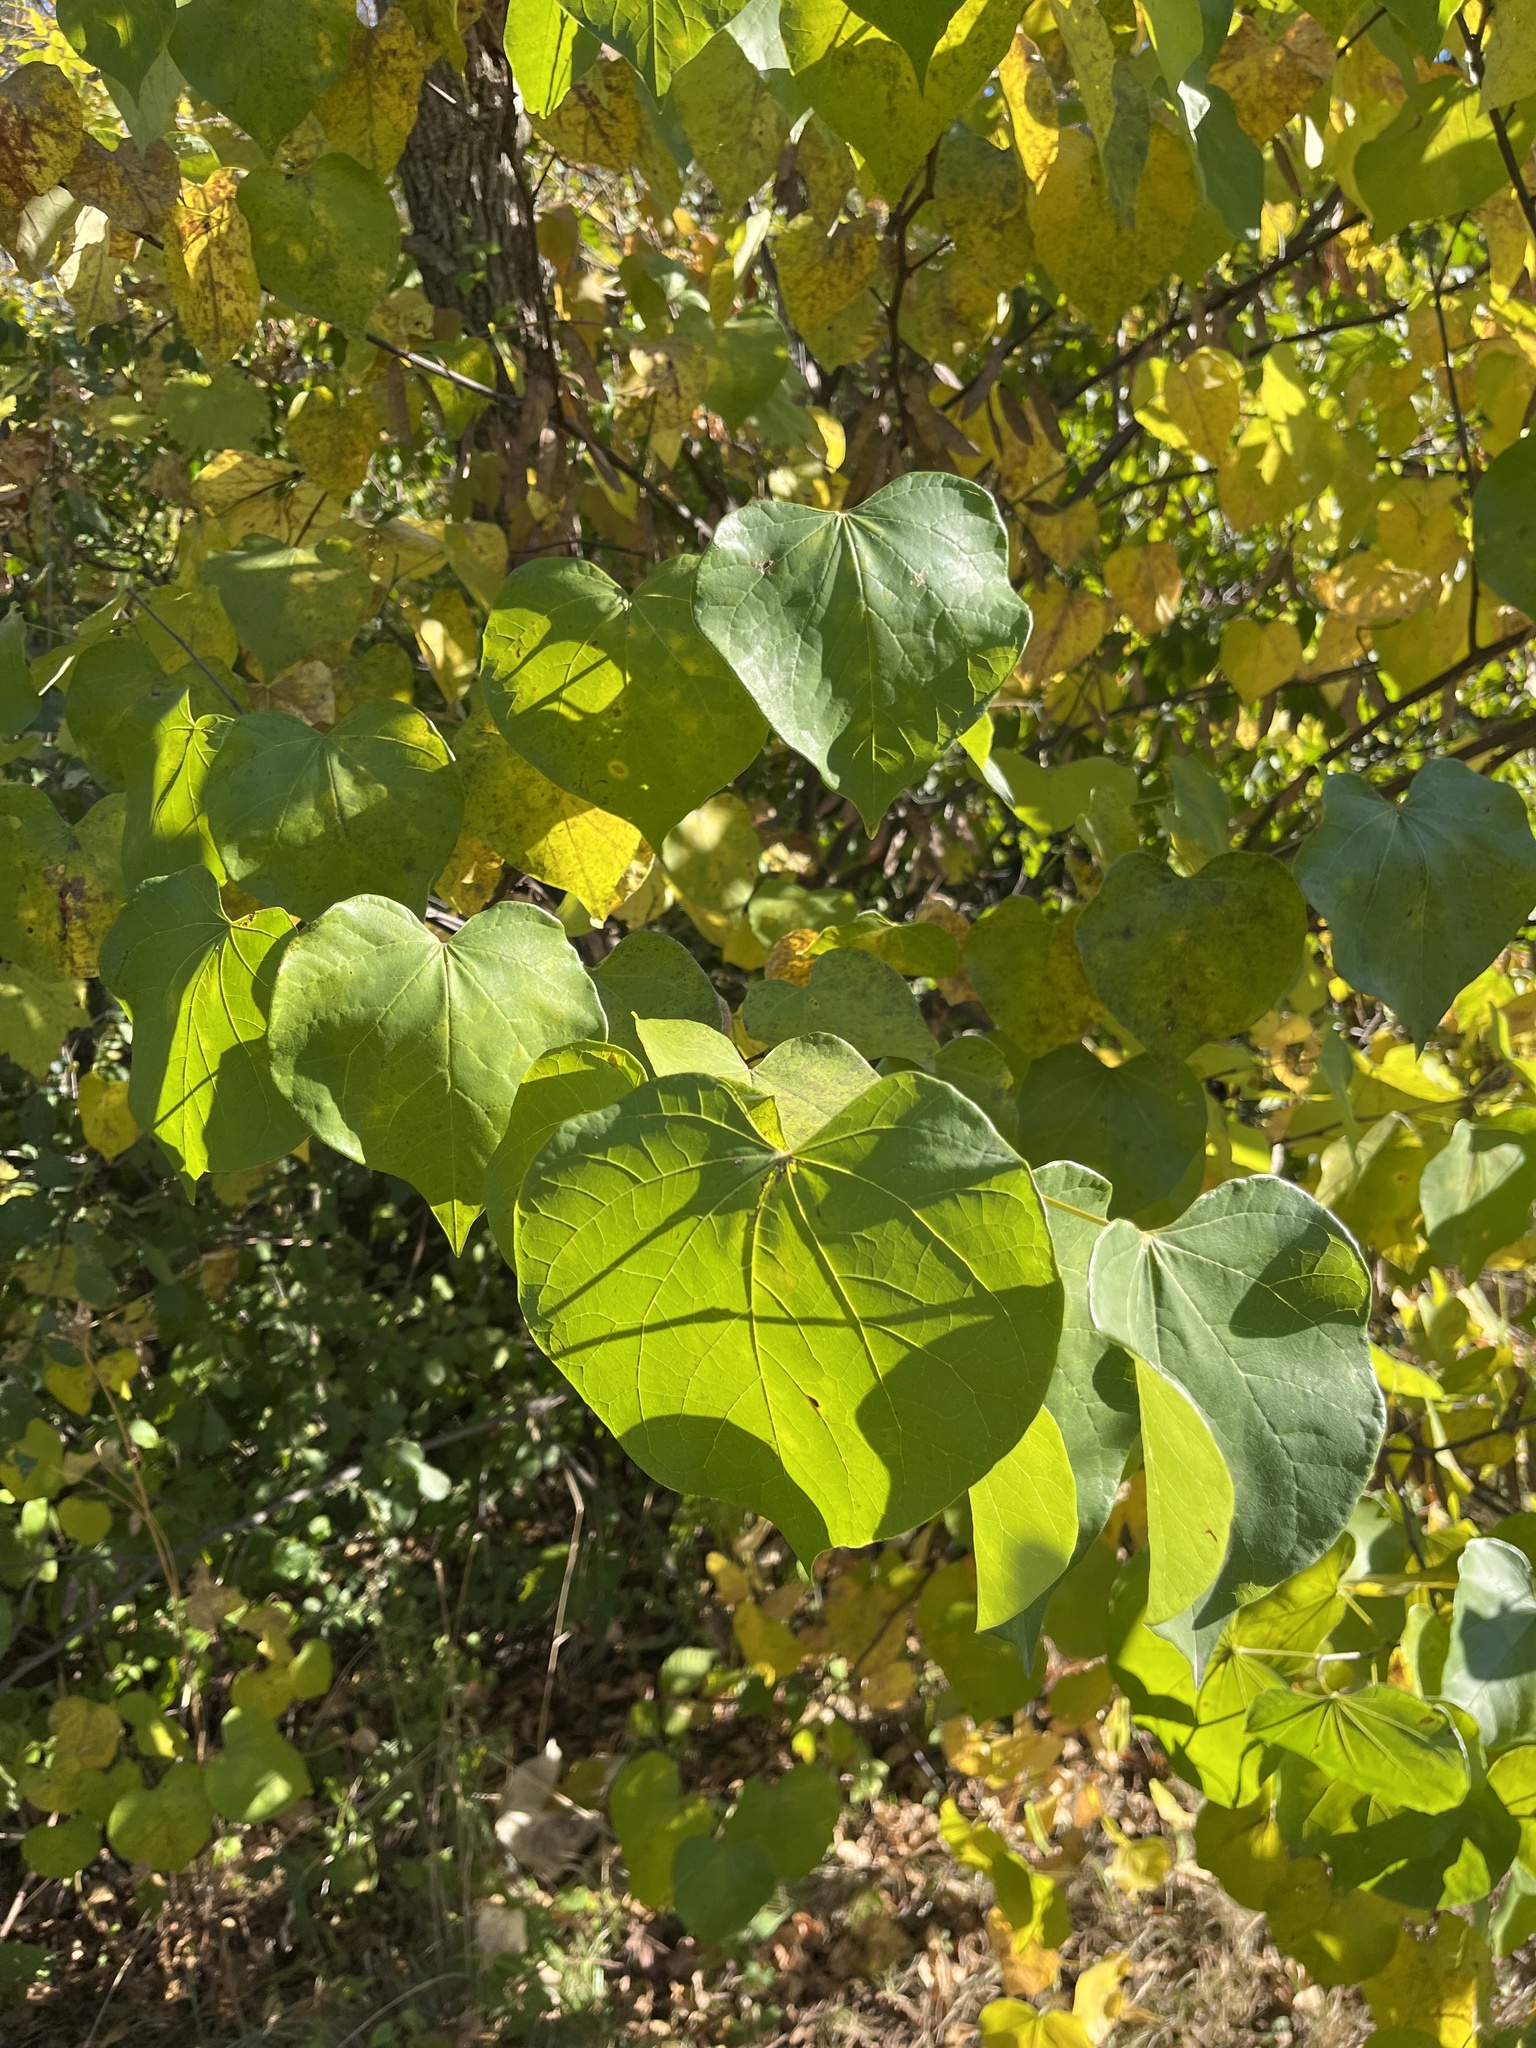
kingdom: Plantae
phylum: Tracheophyta
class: Magnoliopsida
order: Fabales
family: Fabaceae
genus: Cercis
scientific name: Cercis canadensis
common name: Eastern redbud
